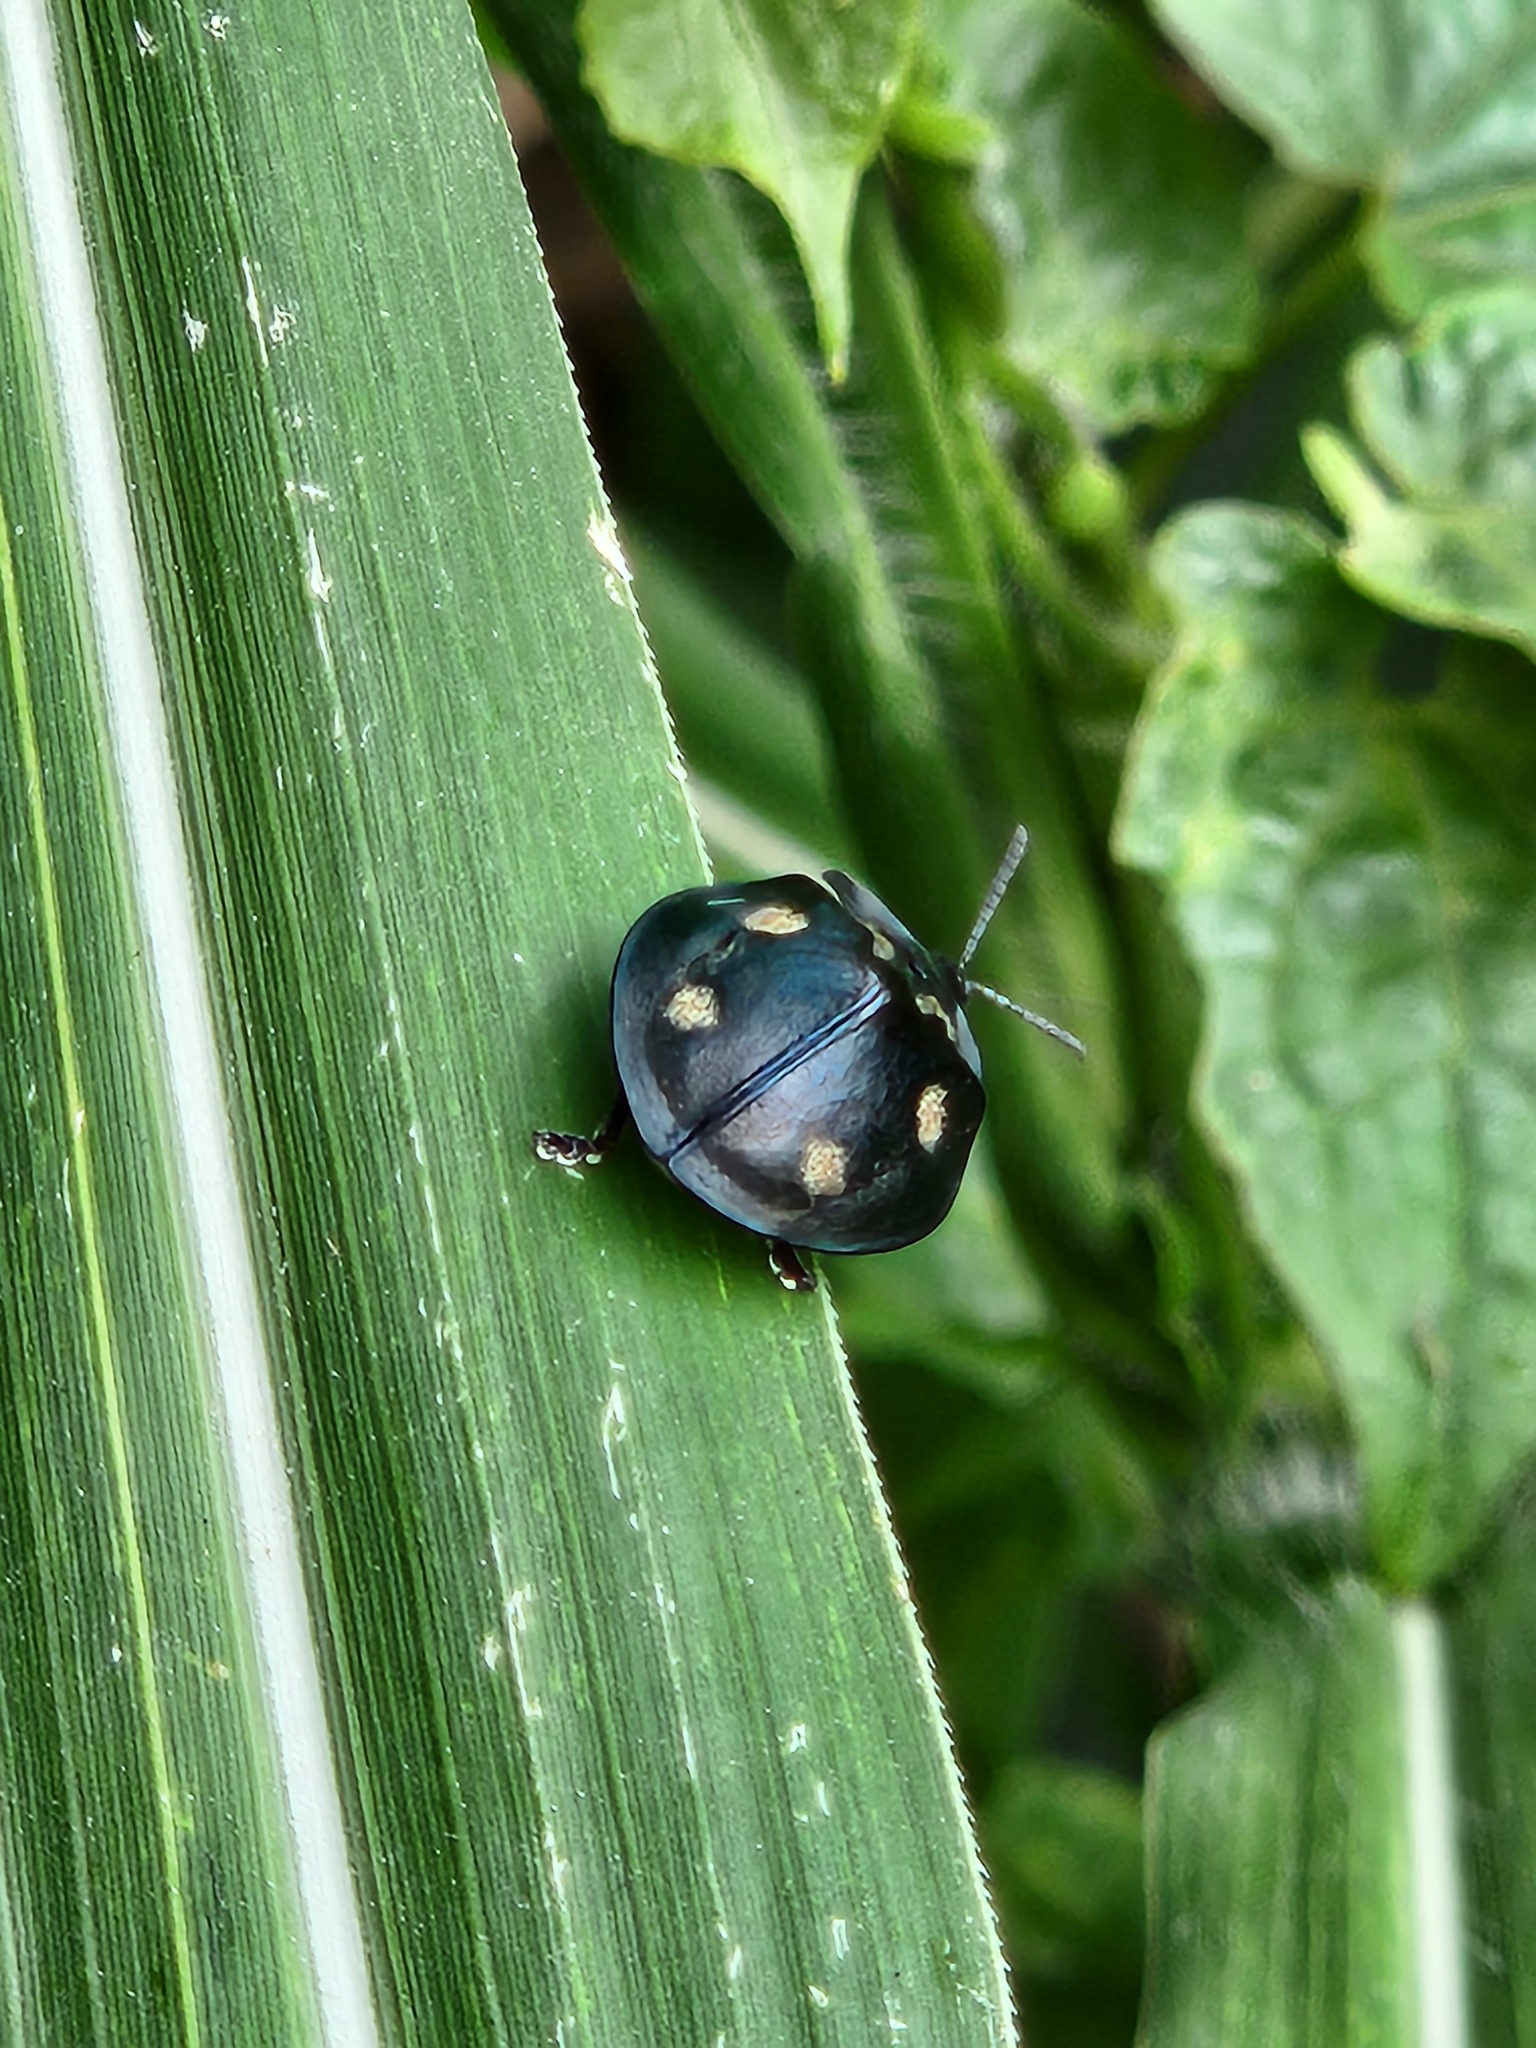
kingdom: Animalia
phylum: Arthropoda
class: Insecta
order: Coleoptera
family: Chrysomelidae
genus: Stolas
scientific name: Stolas chalybaea
